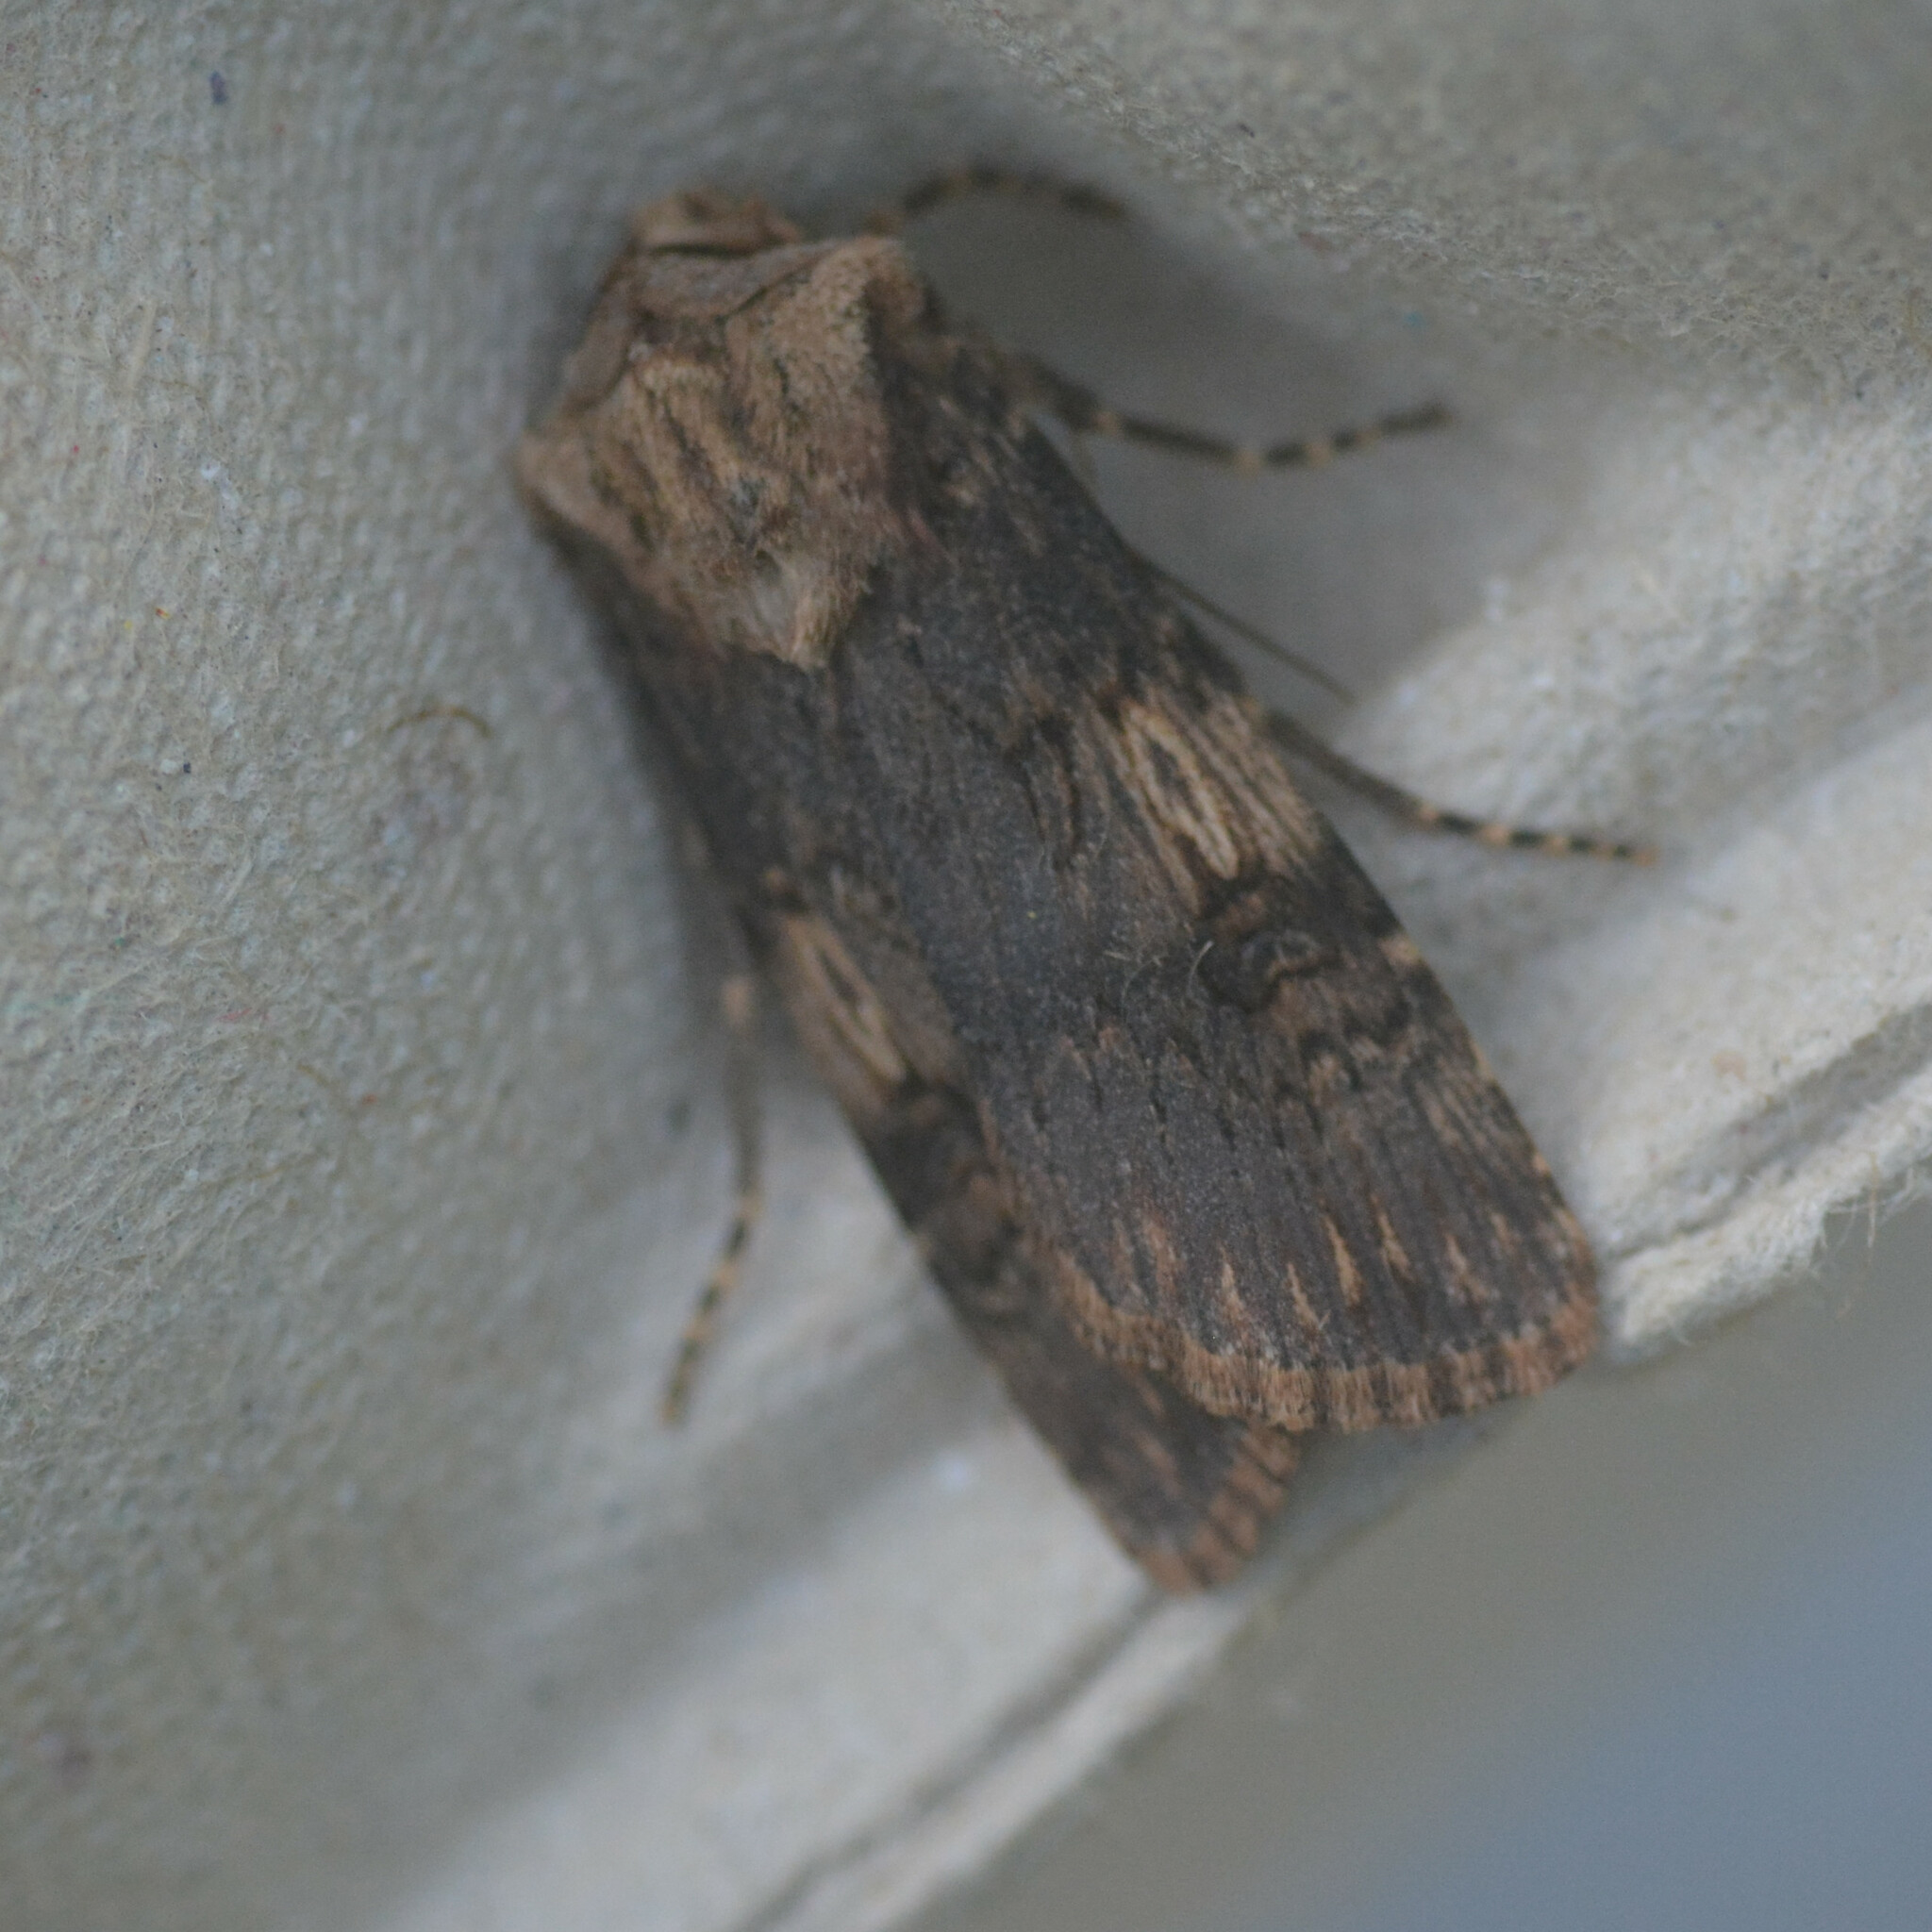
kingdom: Animalia
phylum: Arthropoda
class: Insecta
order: Lepidoptera
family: Noctuidae
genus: Agrotis
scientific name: Agrotis puta
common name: Shuttle-shaped dart
